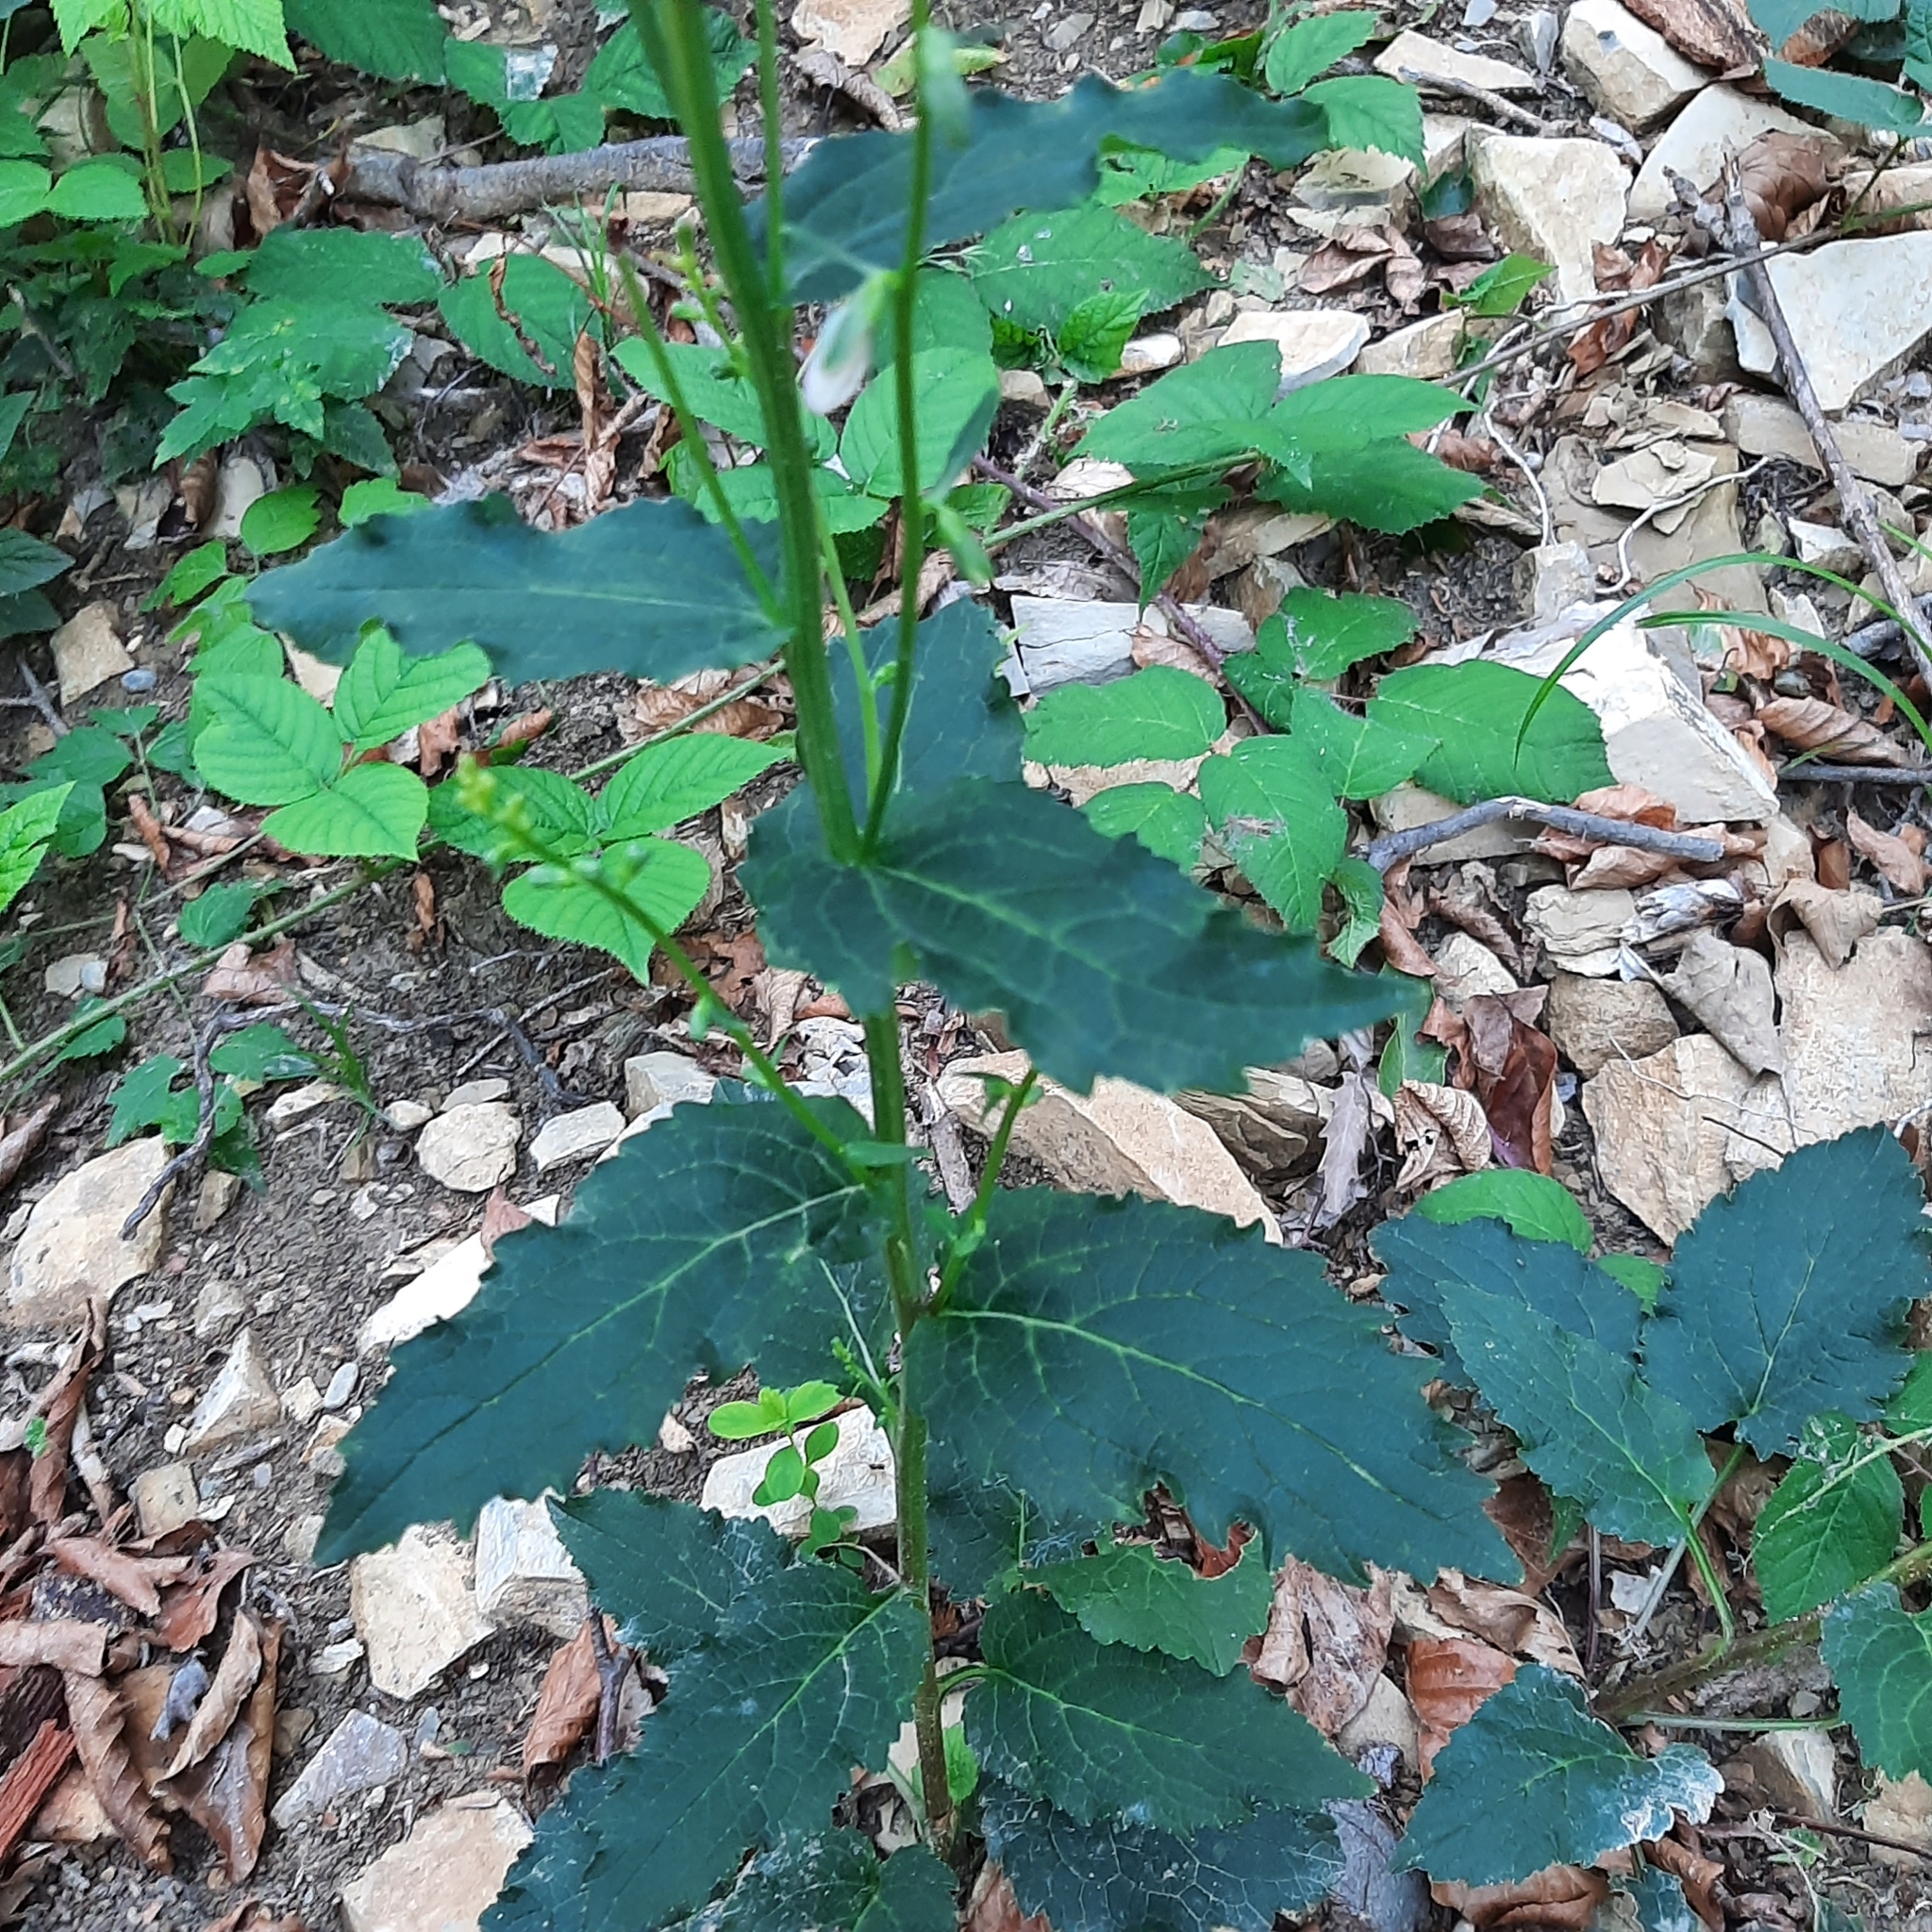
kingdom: Plantae
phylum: Tracheophyta
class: Magnoliopsida
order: Asterales
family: Campanulaceae
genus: Campanula
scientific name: Campanula rapunculoides
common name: Creeping bellflower
